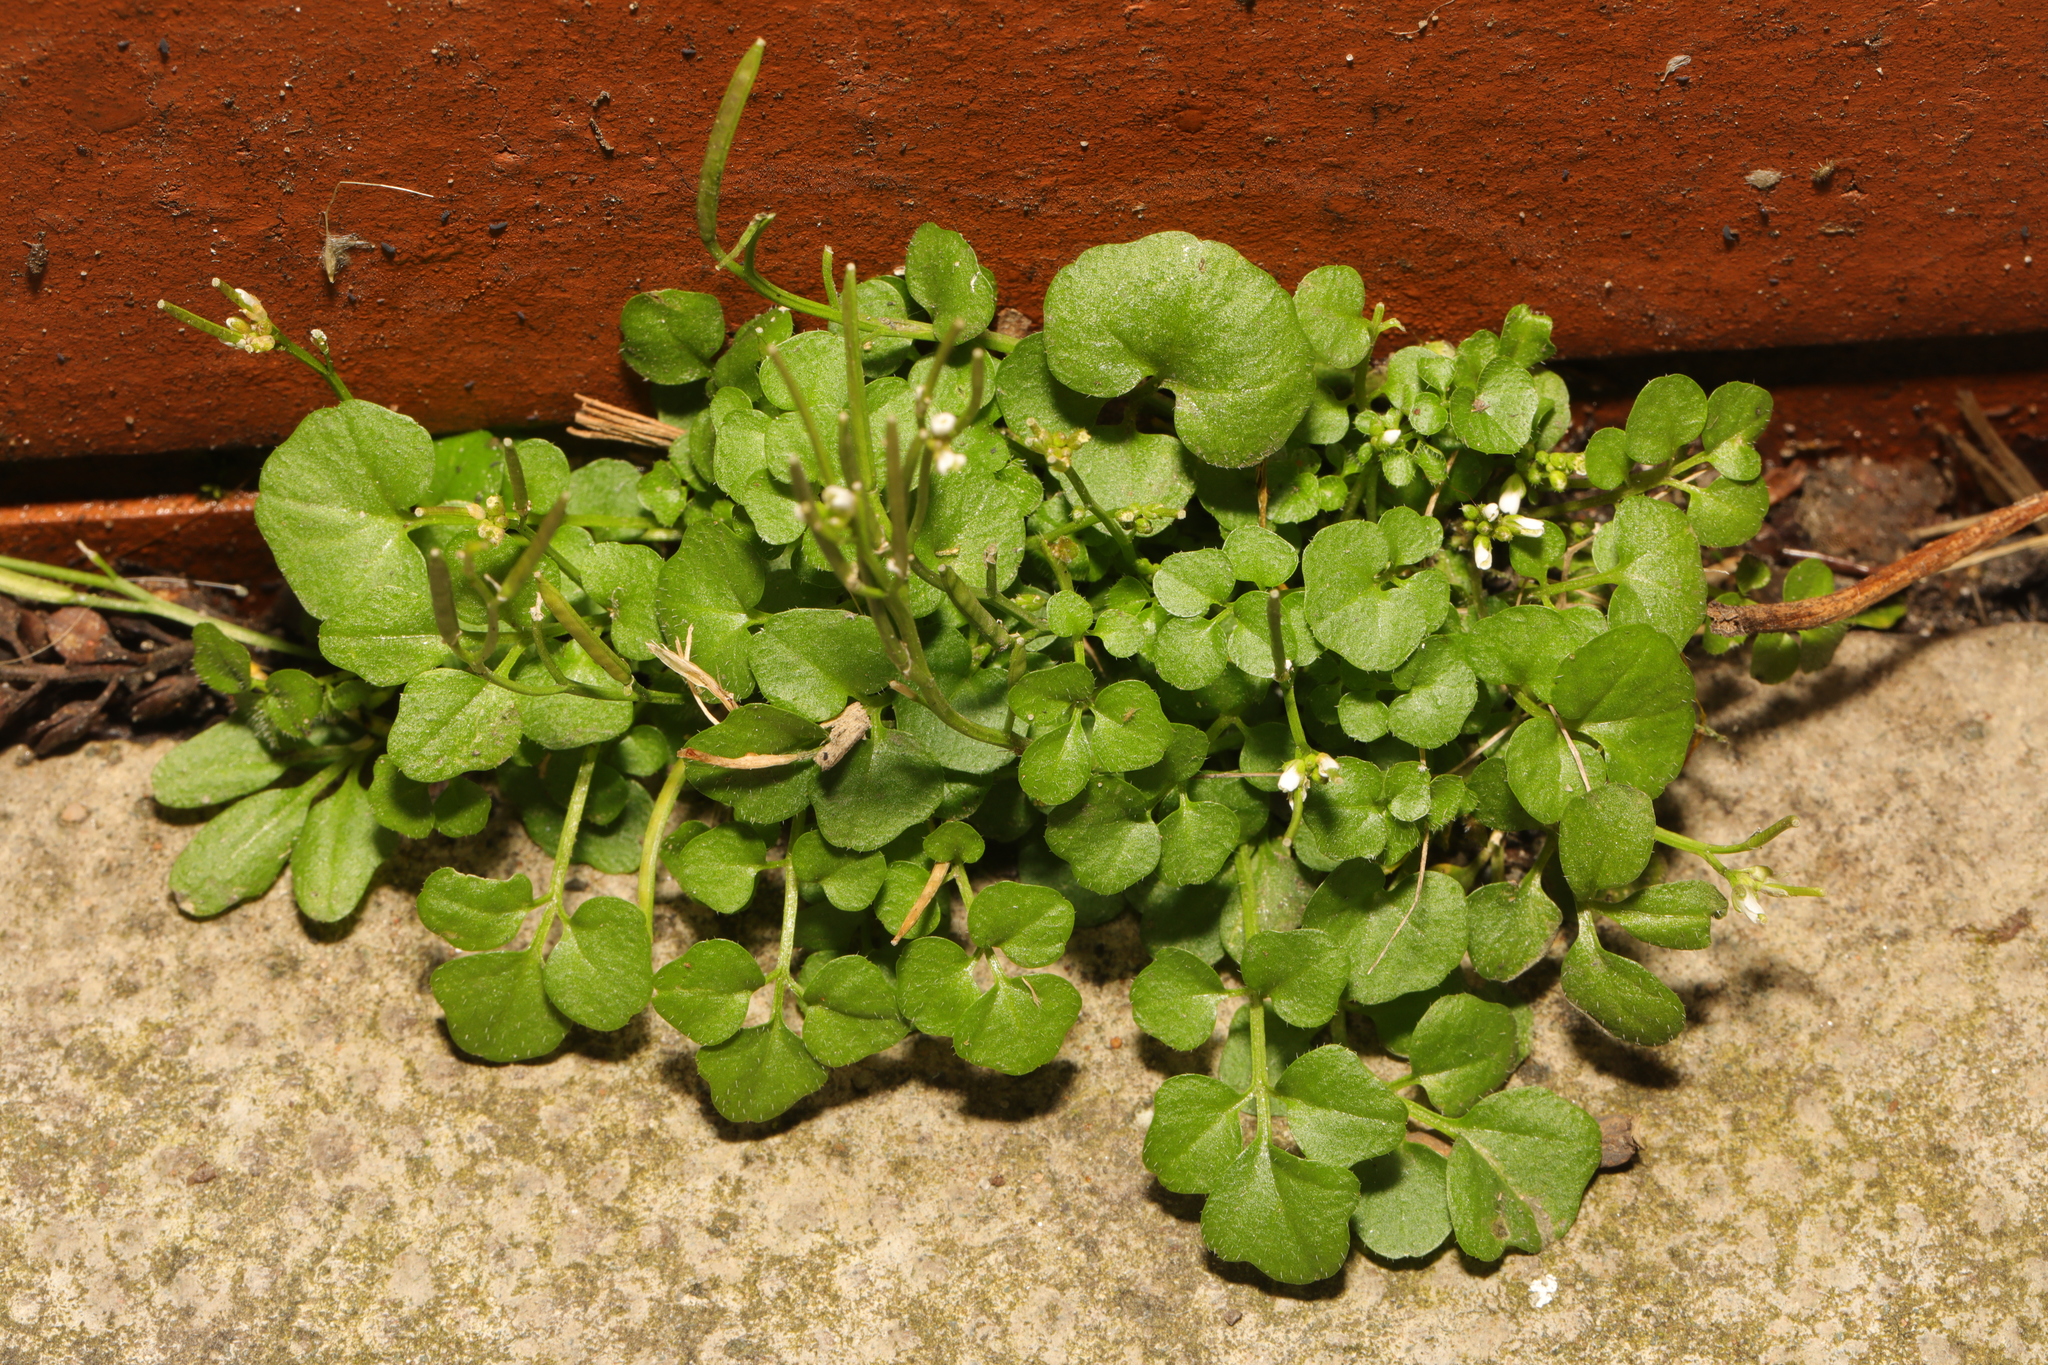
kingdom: Plantae
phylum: Tracheophyta
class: Magnoliopsida
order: Brassicales
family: Brassicaceae
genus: Cardamine
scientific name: Cardamine hirsuta
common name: Hairy bittercress
